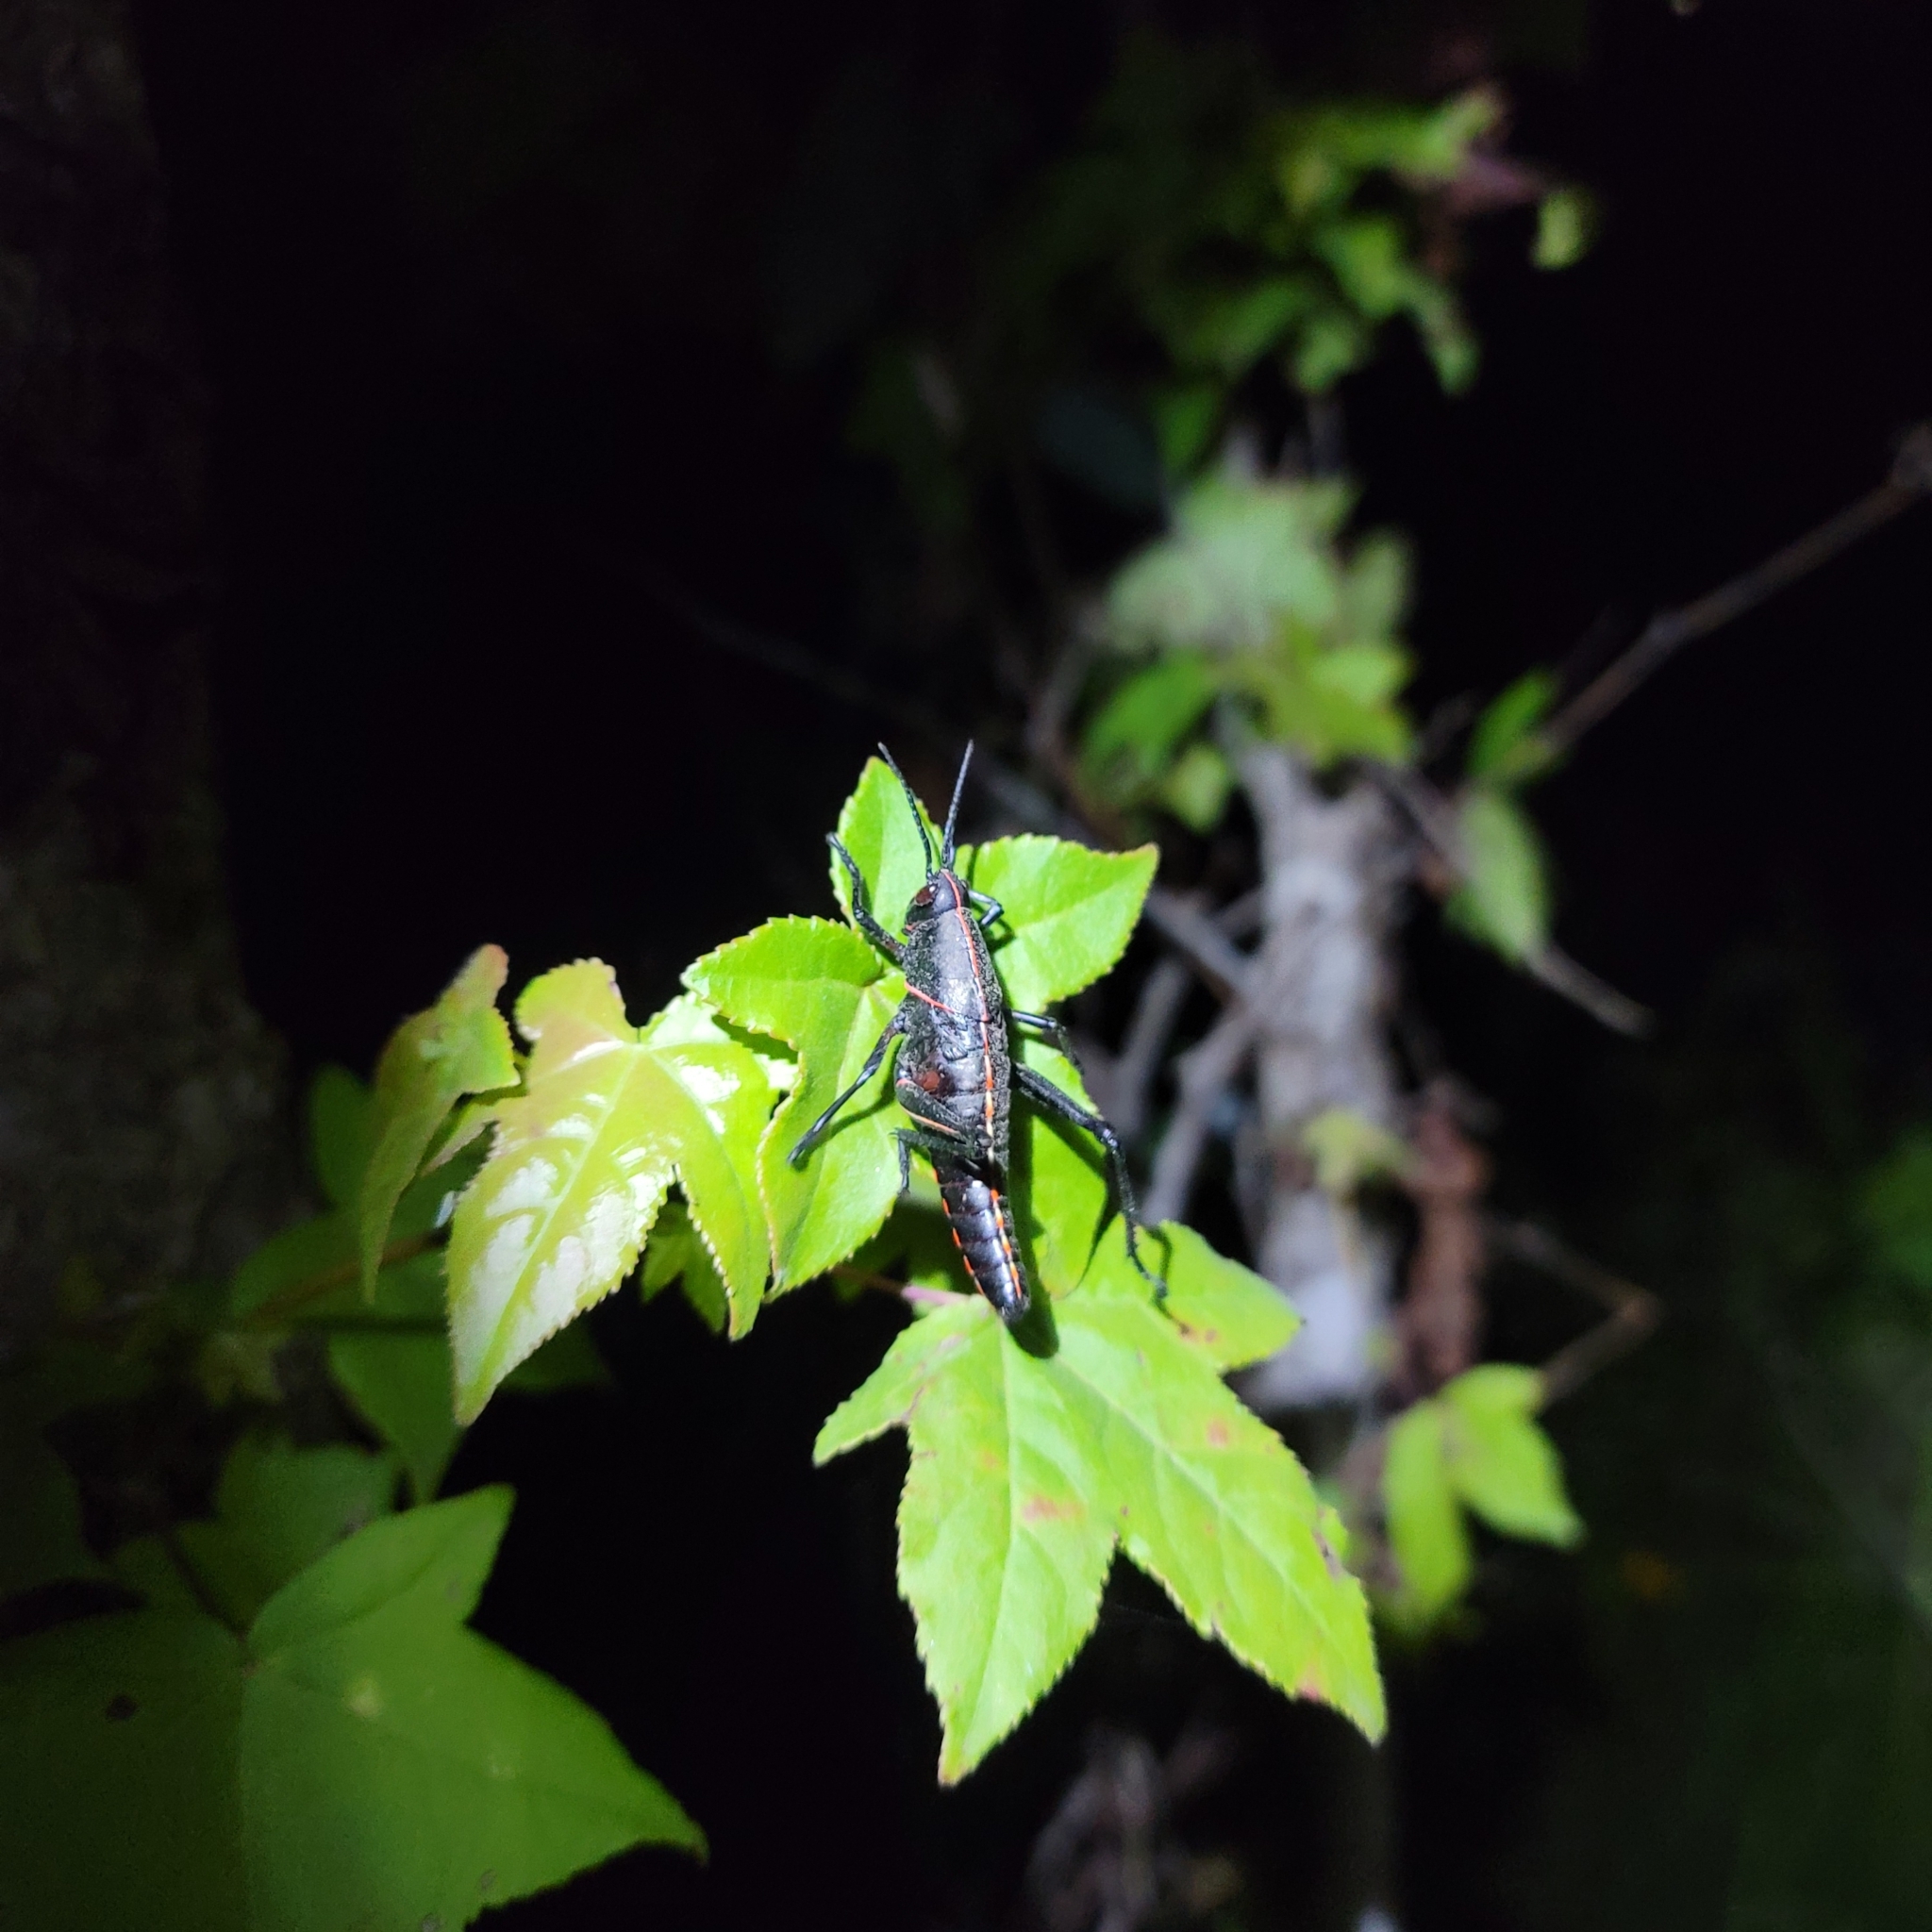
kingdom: Animalia
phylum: Arthropoda
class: Insecta
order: Orthoptera
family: Romaleidae
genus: Romalea
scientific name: Romalea microptera
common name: Eastern lubber grasshopper
